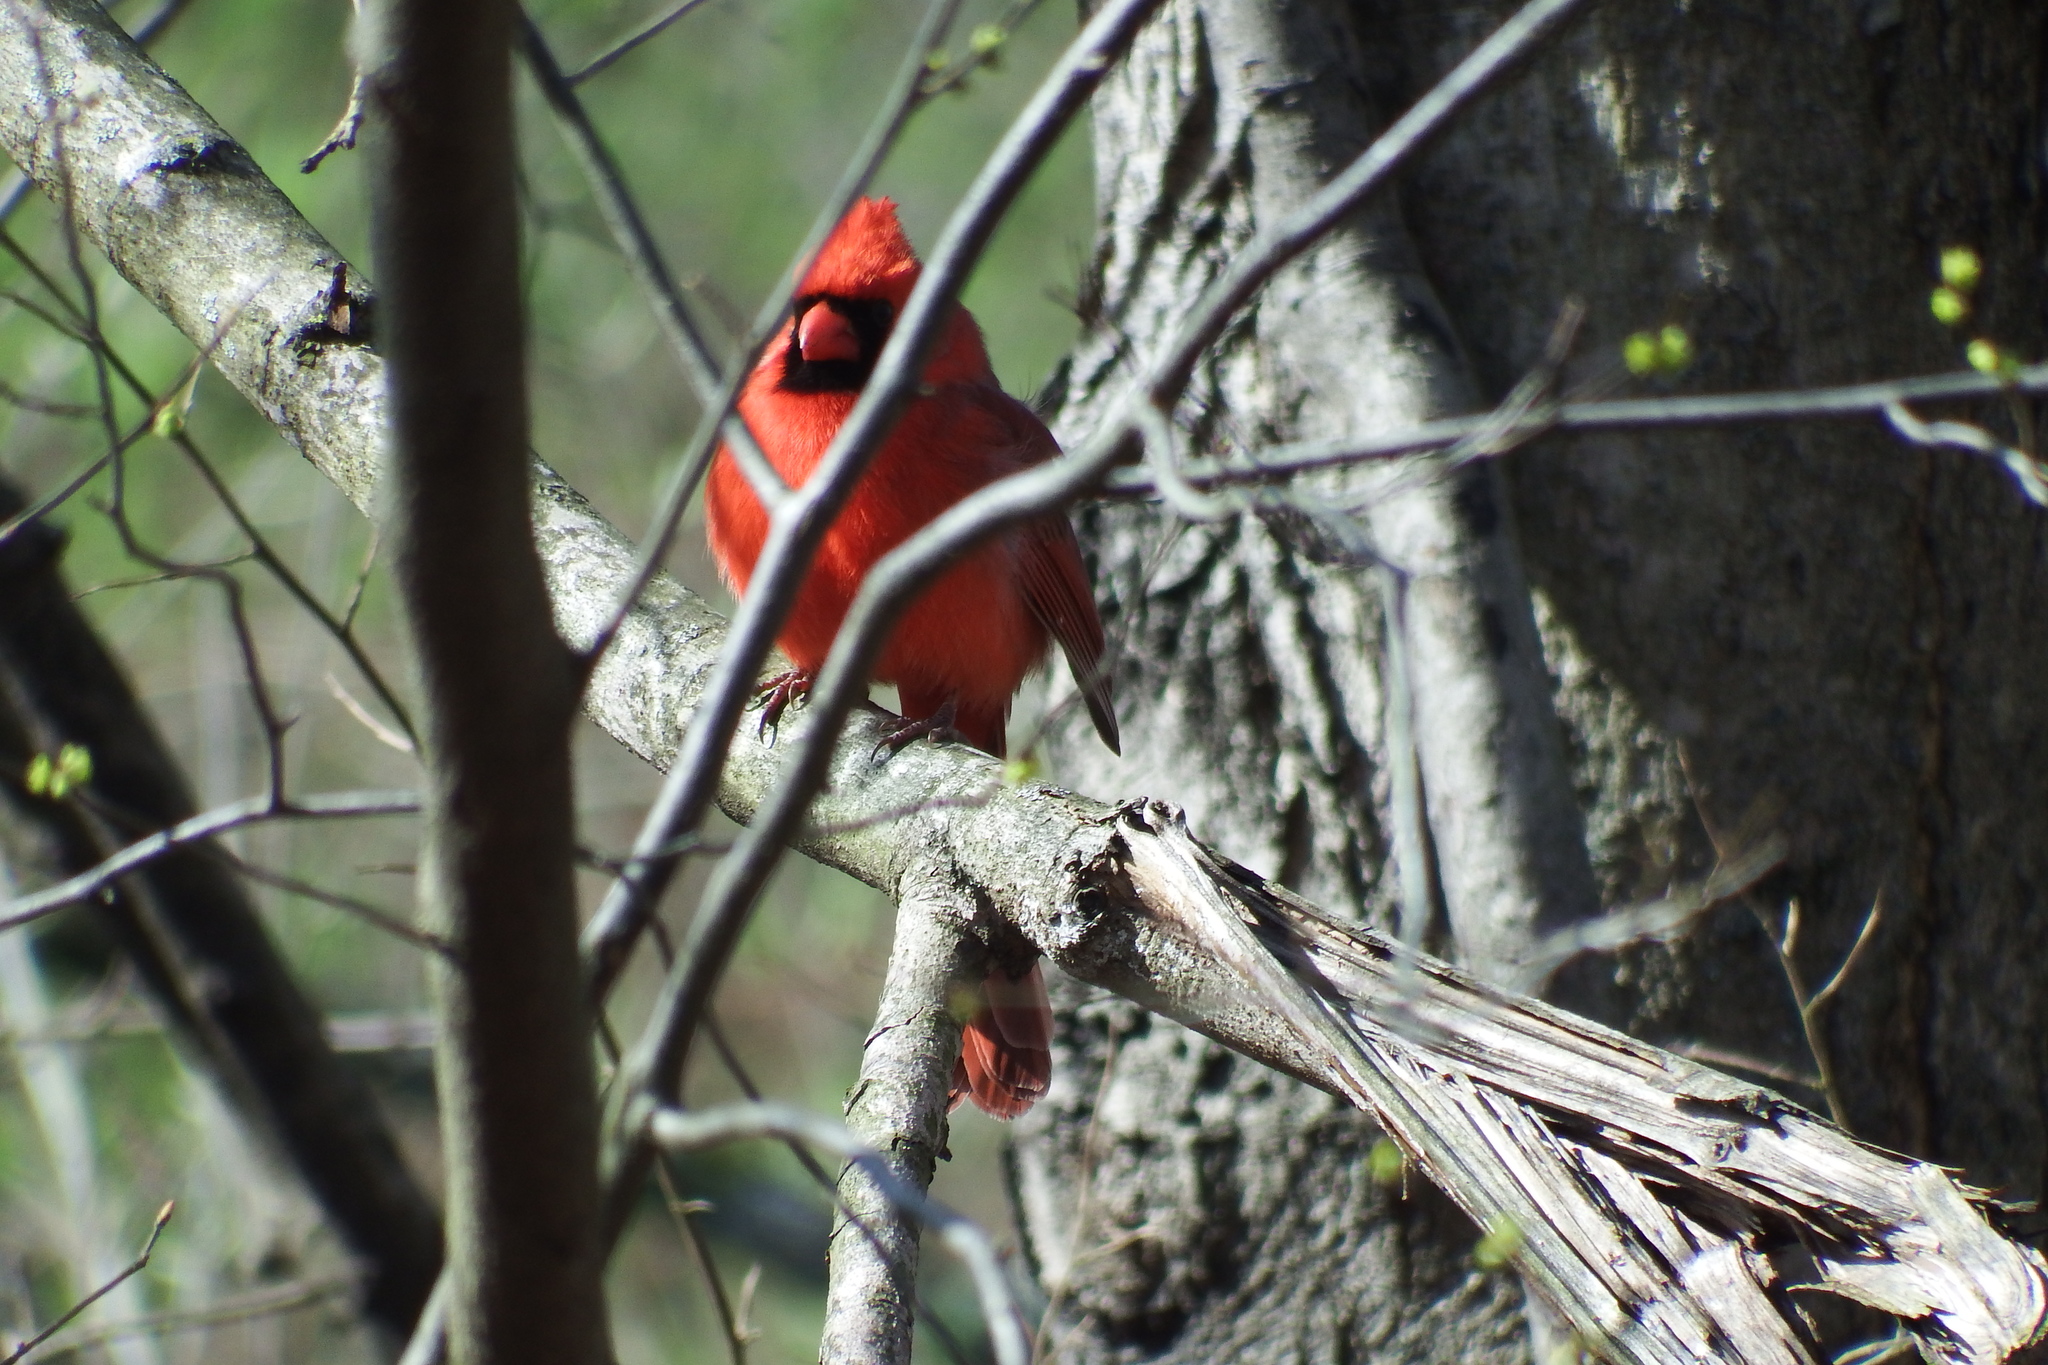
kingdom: Animalia
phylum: Chordata
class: Aves
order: Passeriformes
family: Cardinalidae
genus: Cardinalis
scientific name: Cardinalis cardinalis
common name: Northern cardinal
